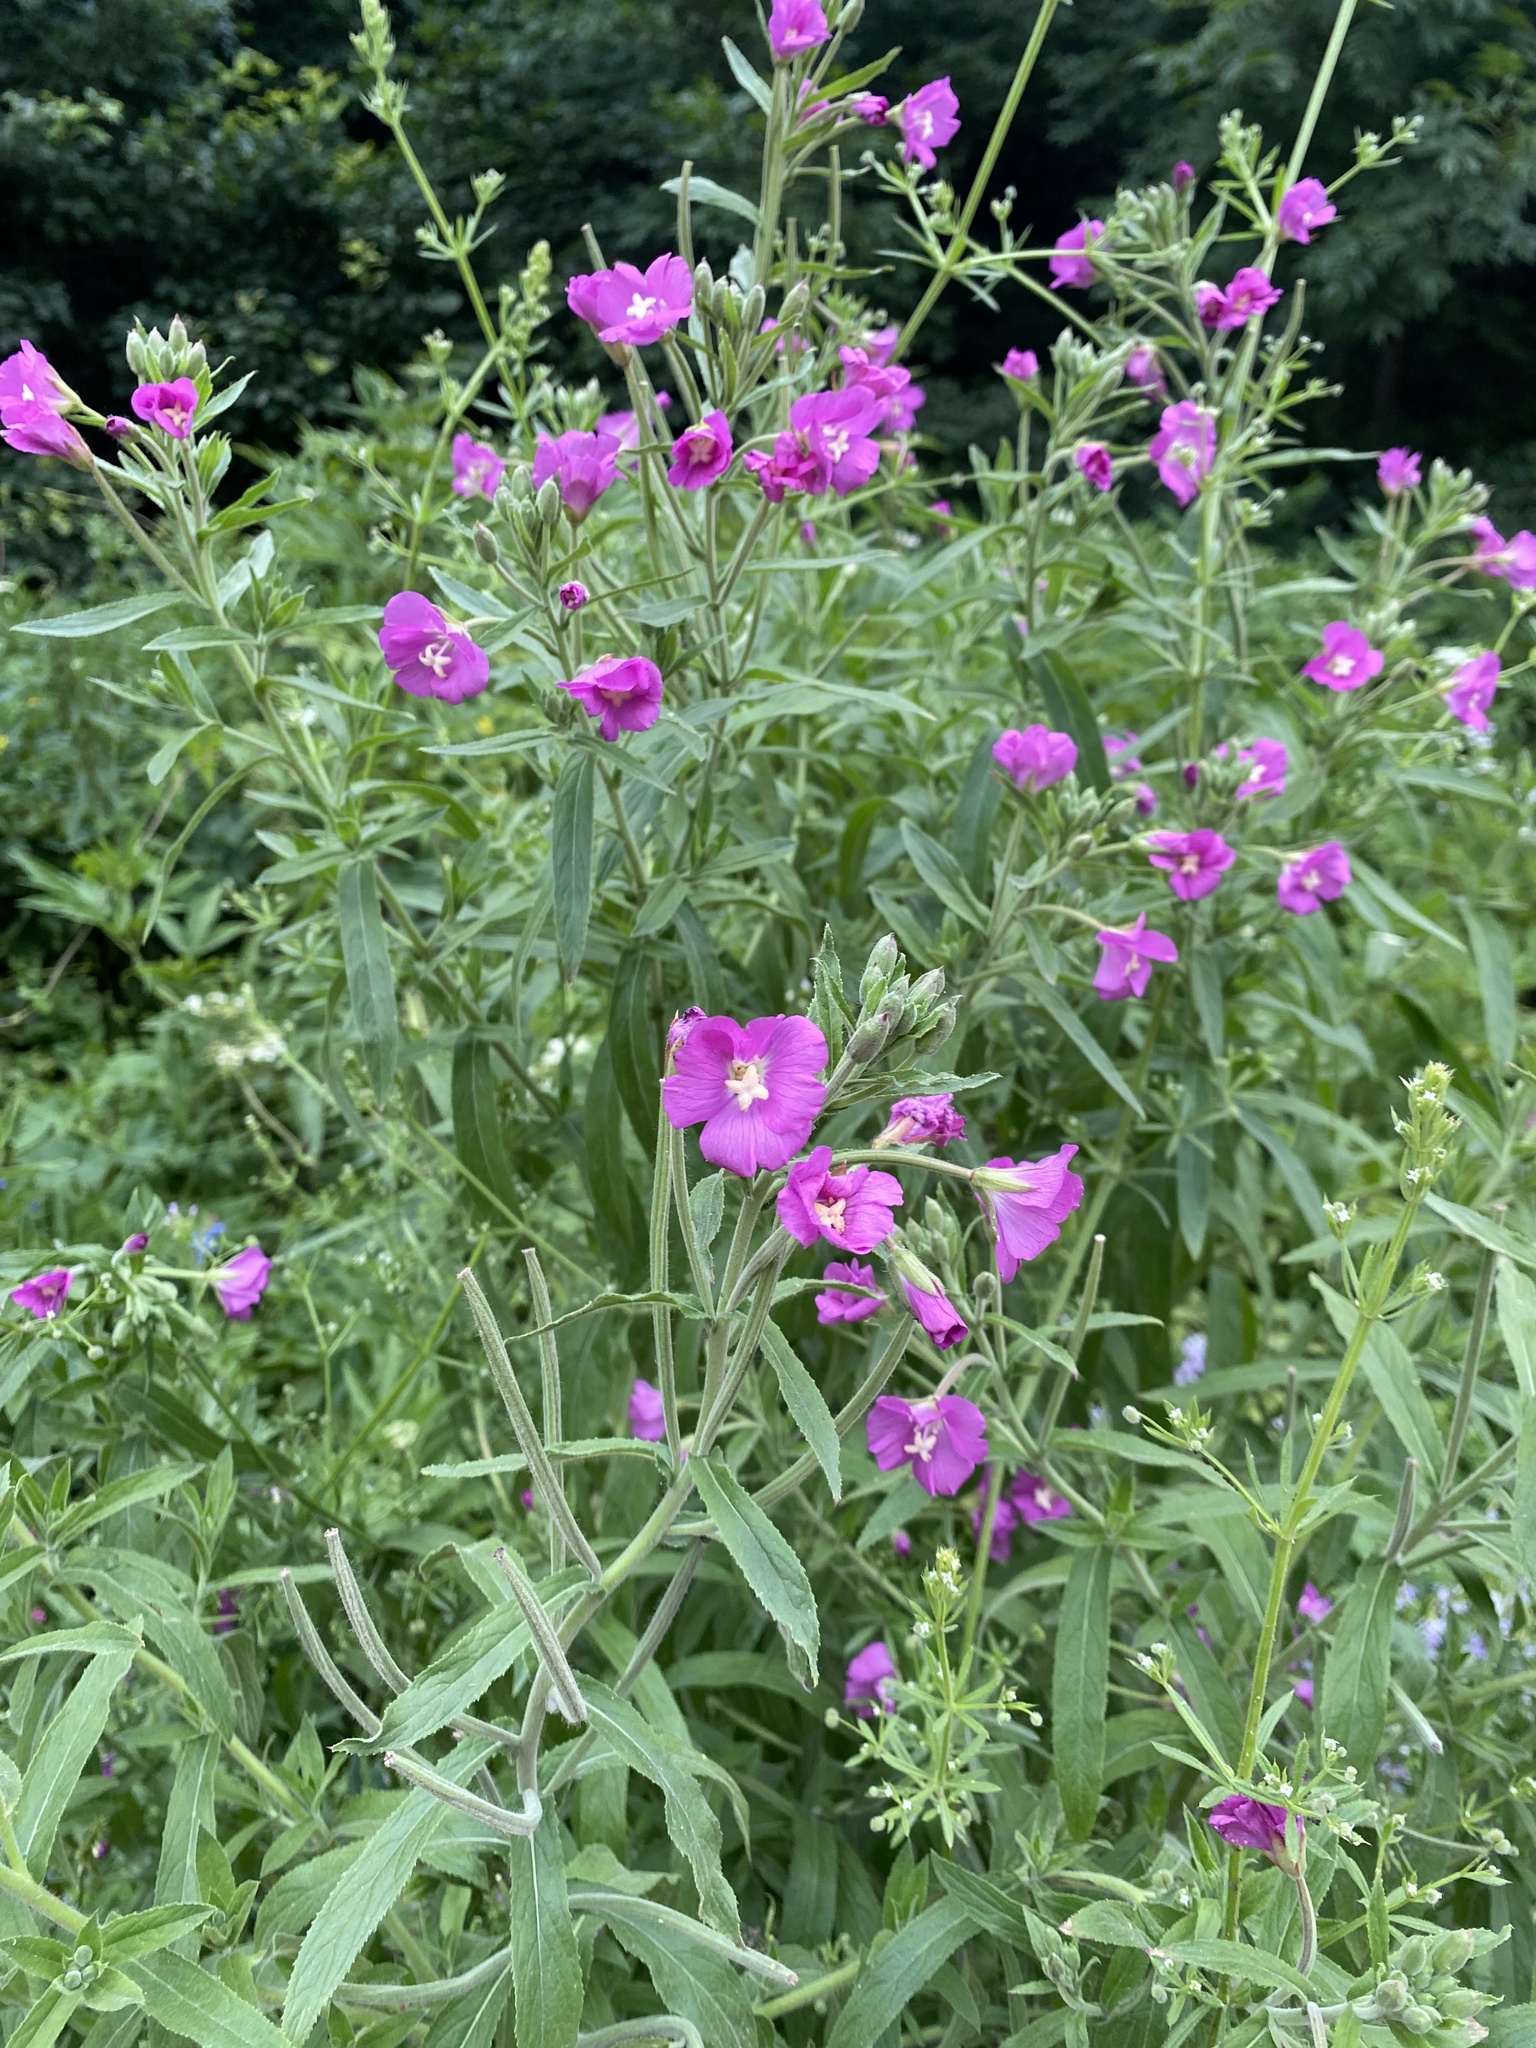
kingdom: Plantae
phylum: Tracheophyta
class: Magnoliopsida
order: Myrtales
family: Onagraceae
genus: Epilobium
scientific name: Epilobium hirsutum
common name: Great willowherb
